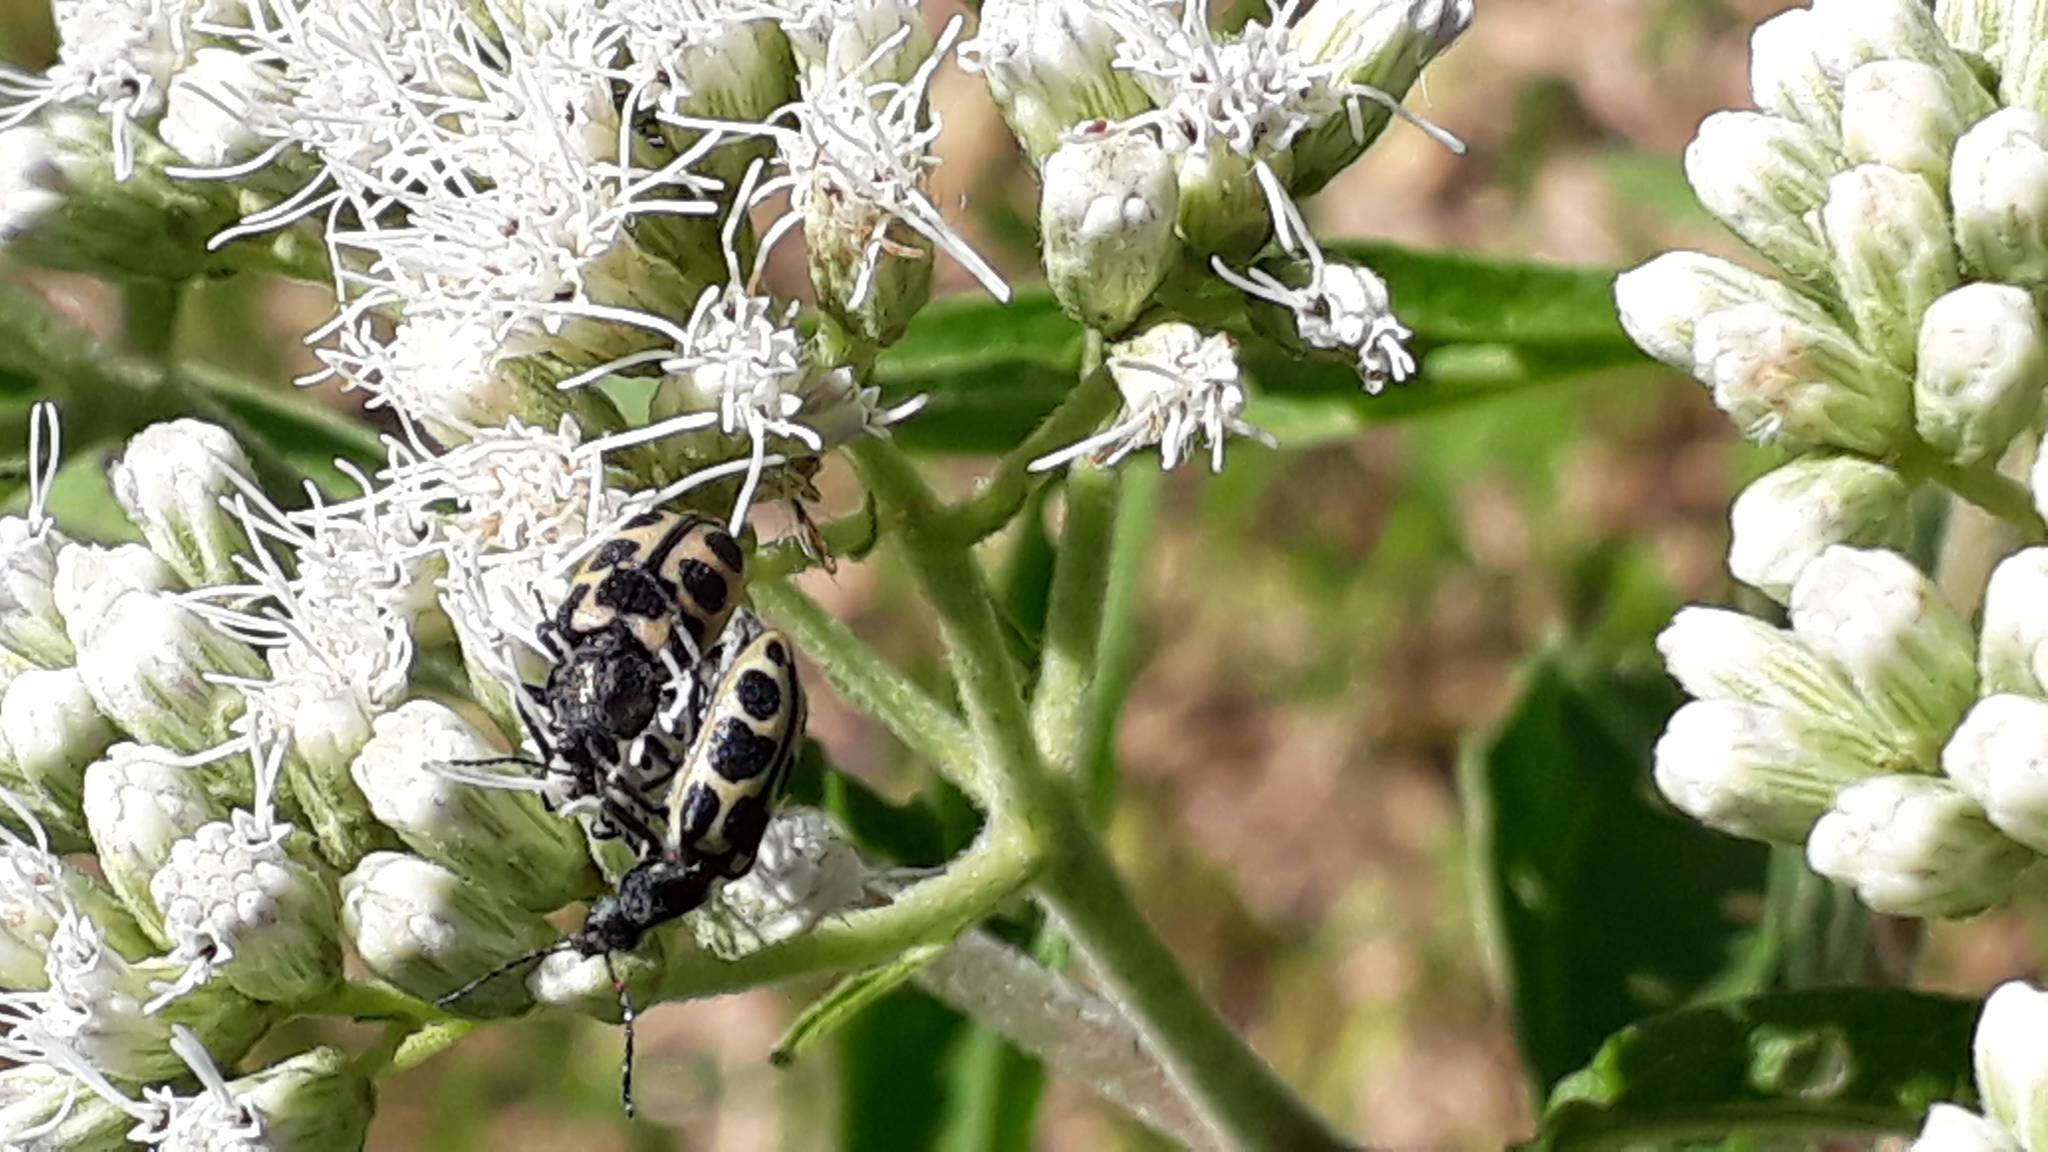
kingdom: Animalia
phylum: Arthropoda
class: Insecta
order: Coleoptera
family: Melyridae
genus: Astylus
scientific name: Astylus
